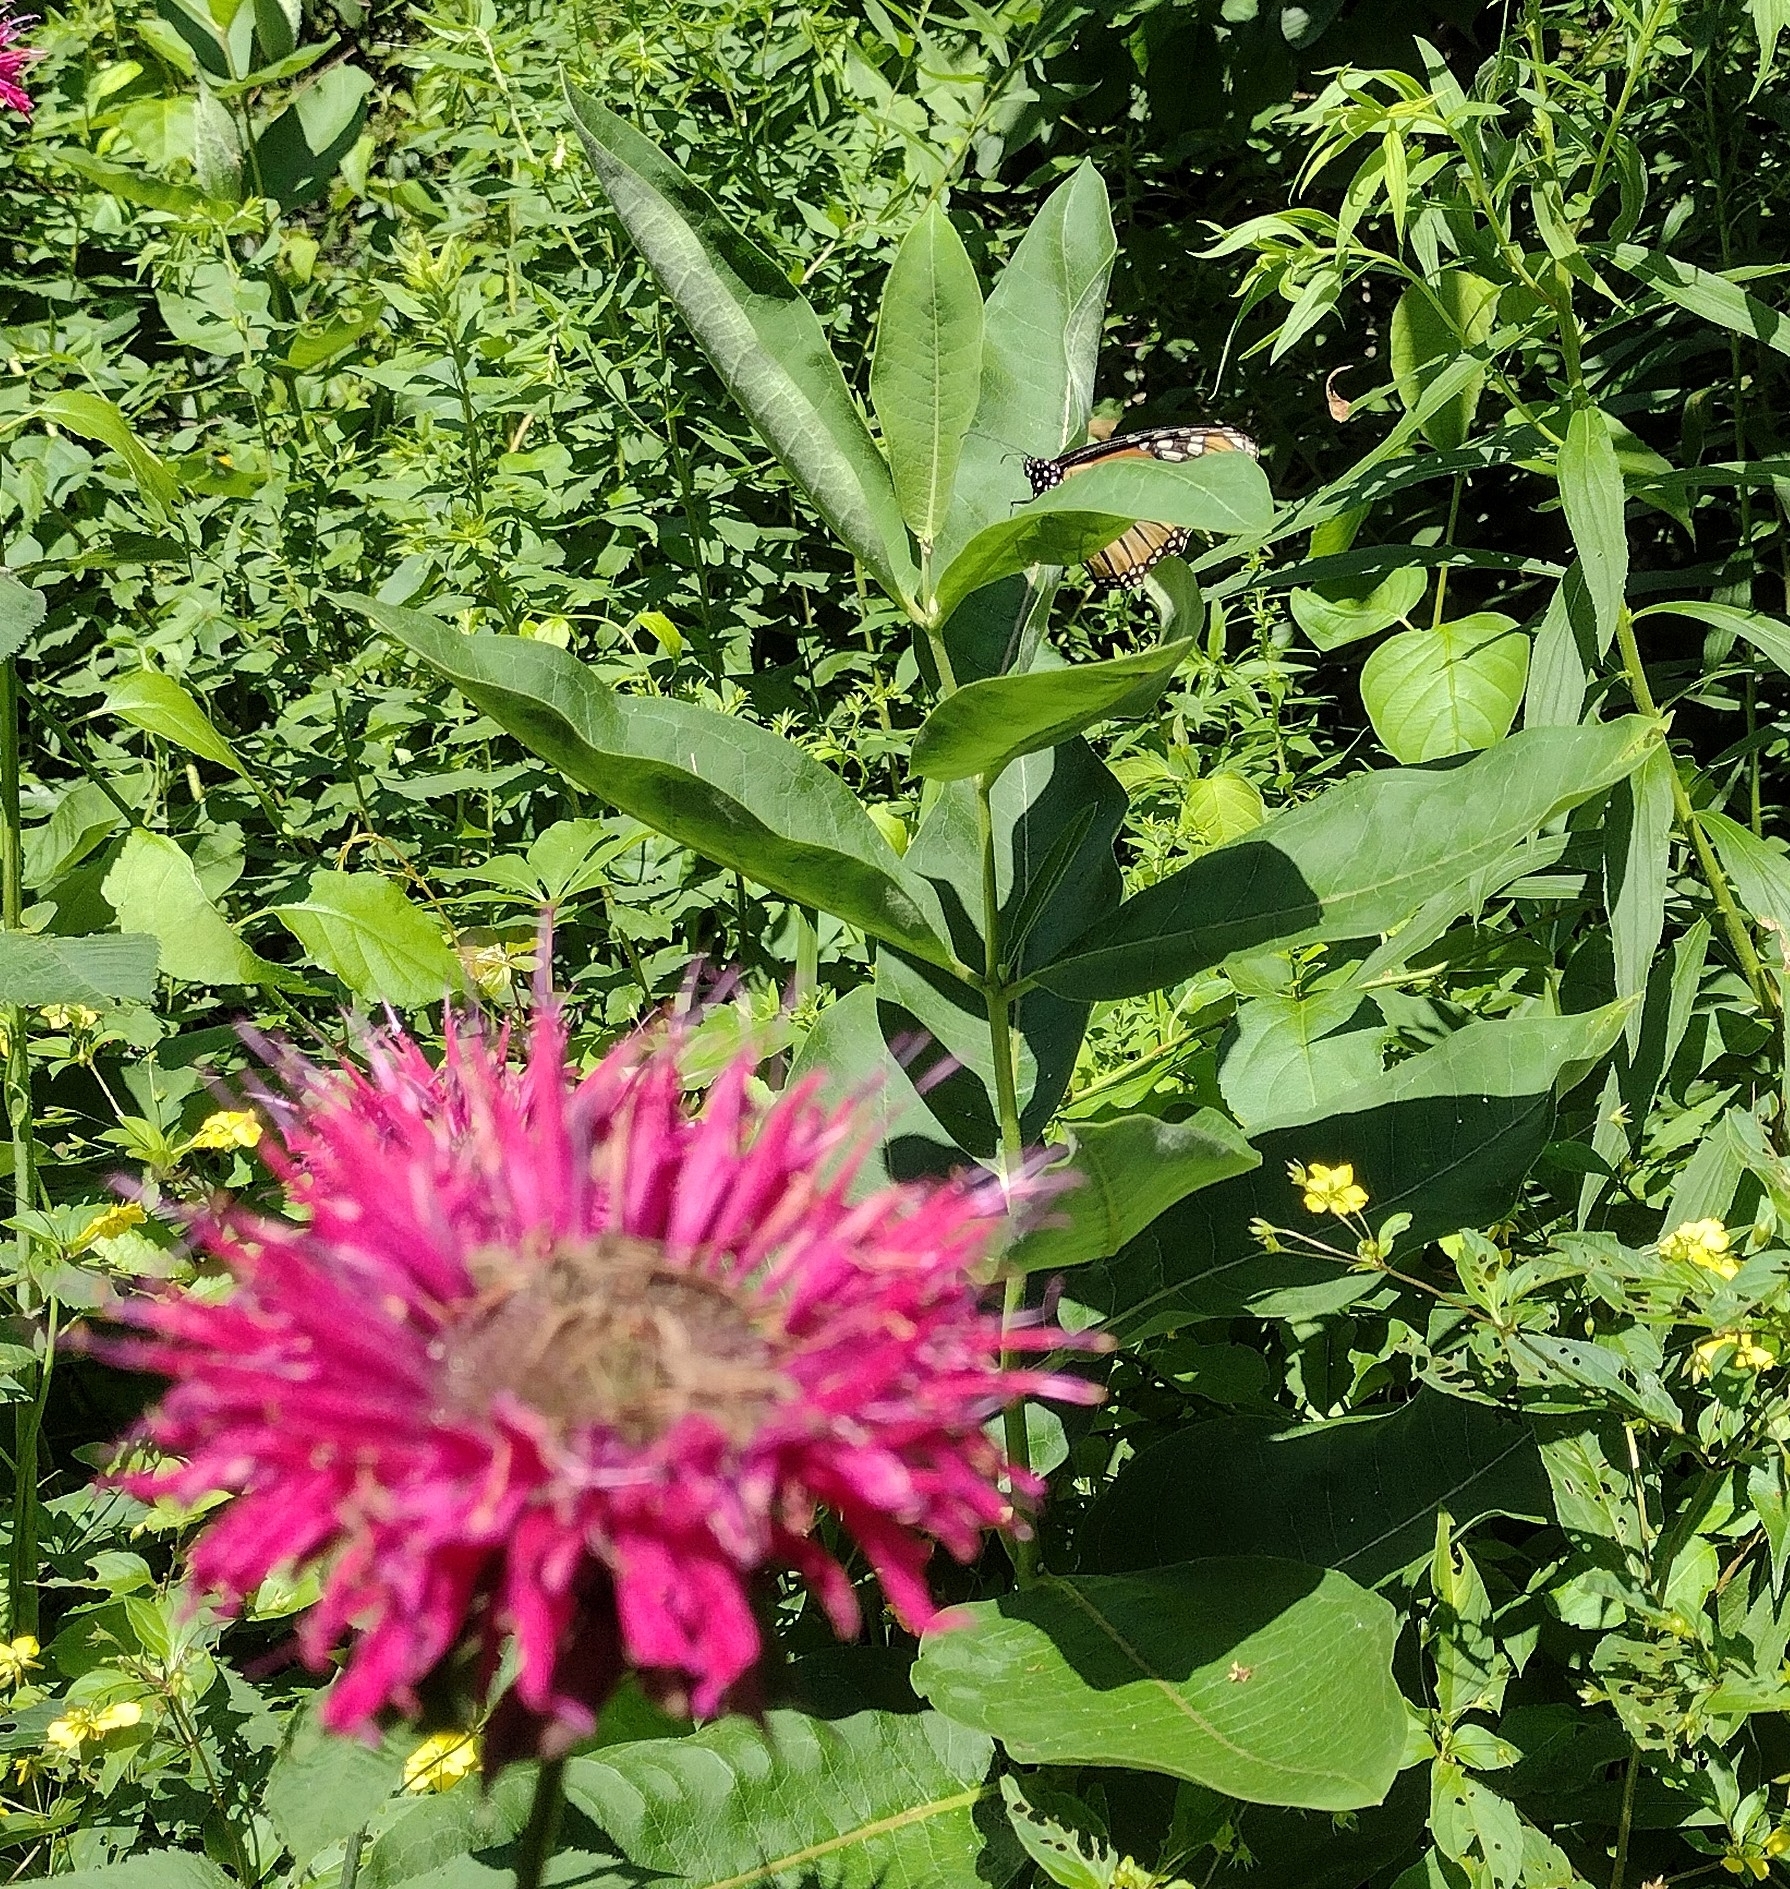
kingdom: Animalia
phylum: Arthropoda
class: Insecta
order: Lepidoptera
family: Nymphalidae
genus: Danaus
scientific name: Danaus plexippus
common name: Monarch
